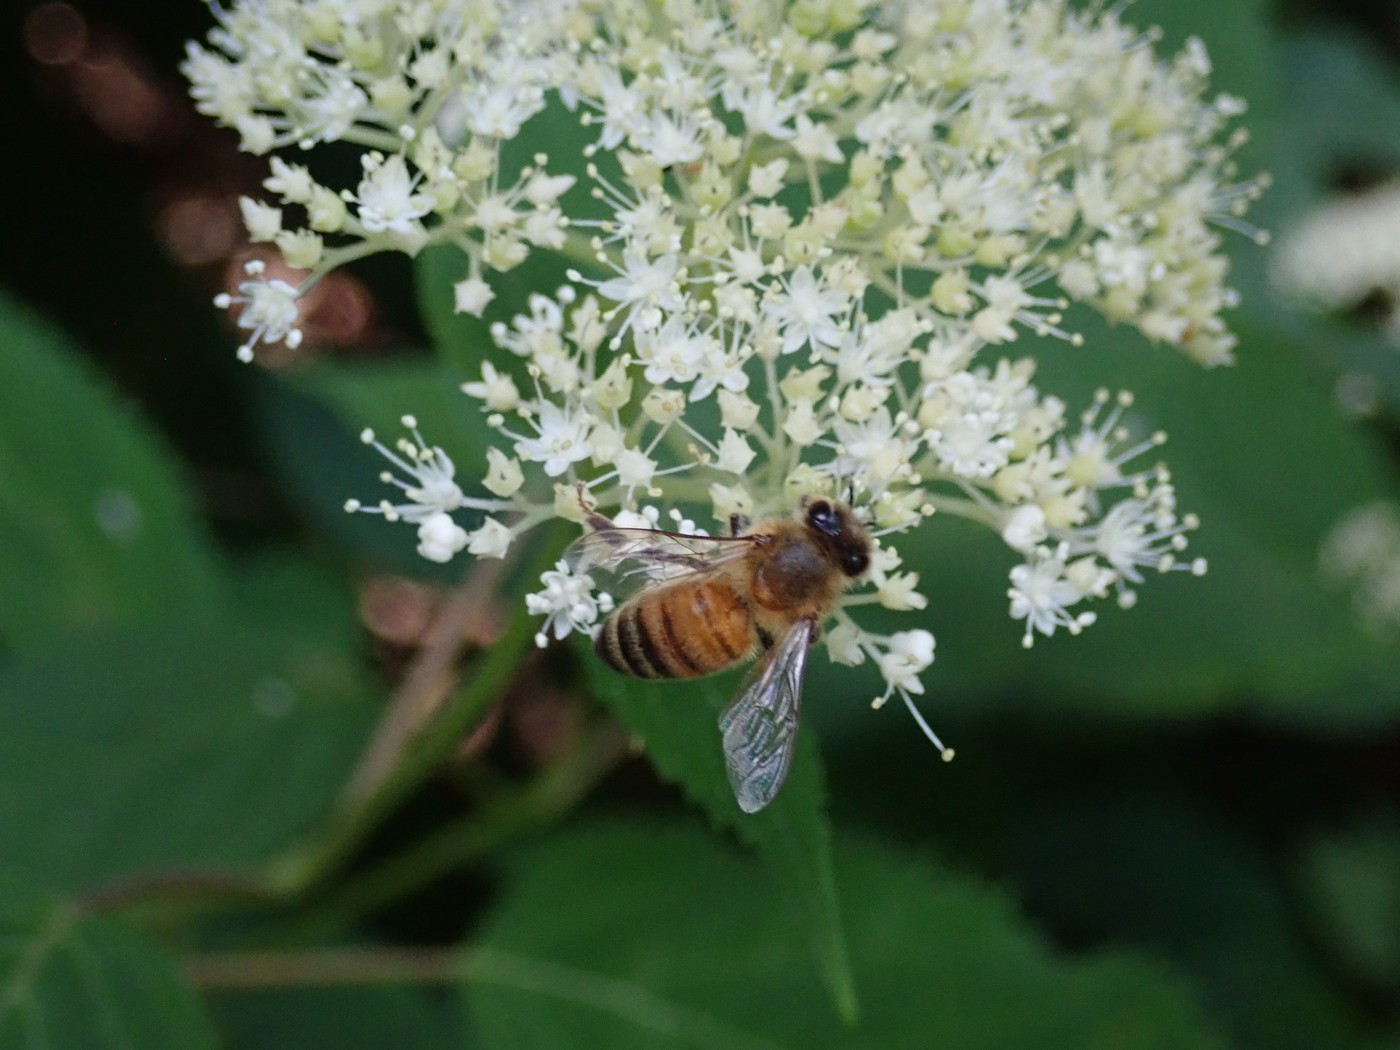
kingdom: Animalia
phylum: Arthropoda
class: Insecta
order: Hymenoptera
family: Apidae
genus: Apis
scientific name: Apis mellifera
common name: Honey bee
